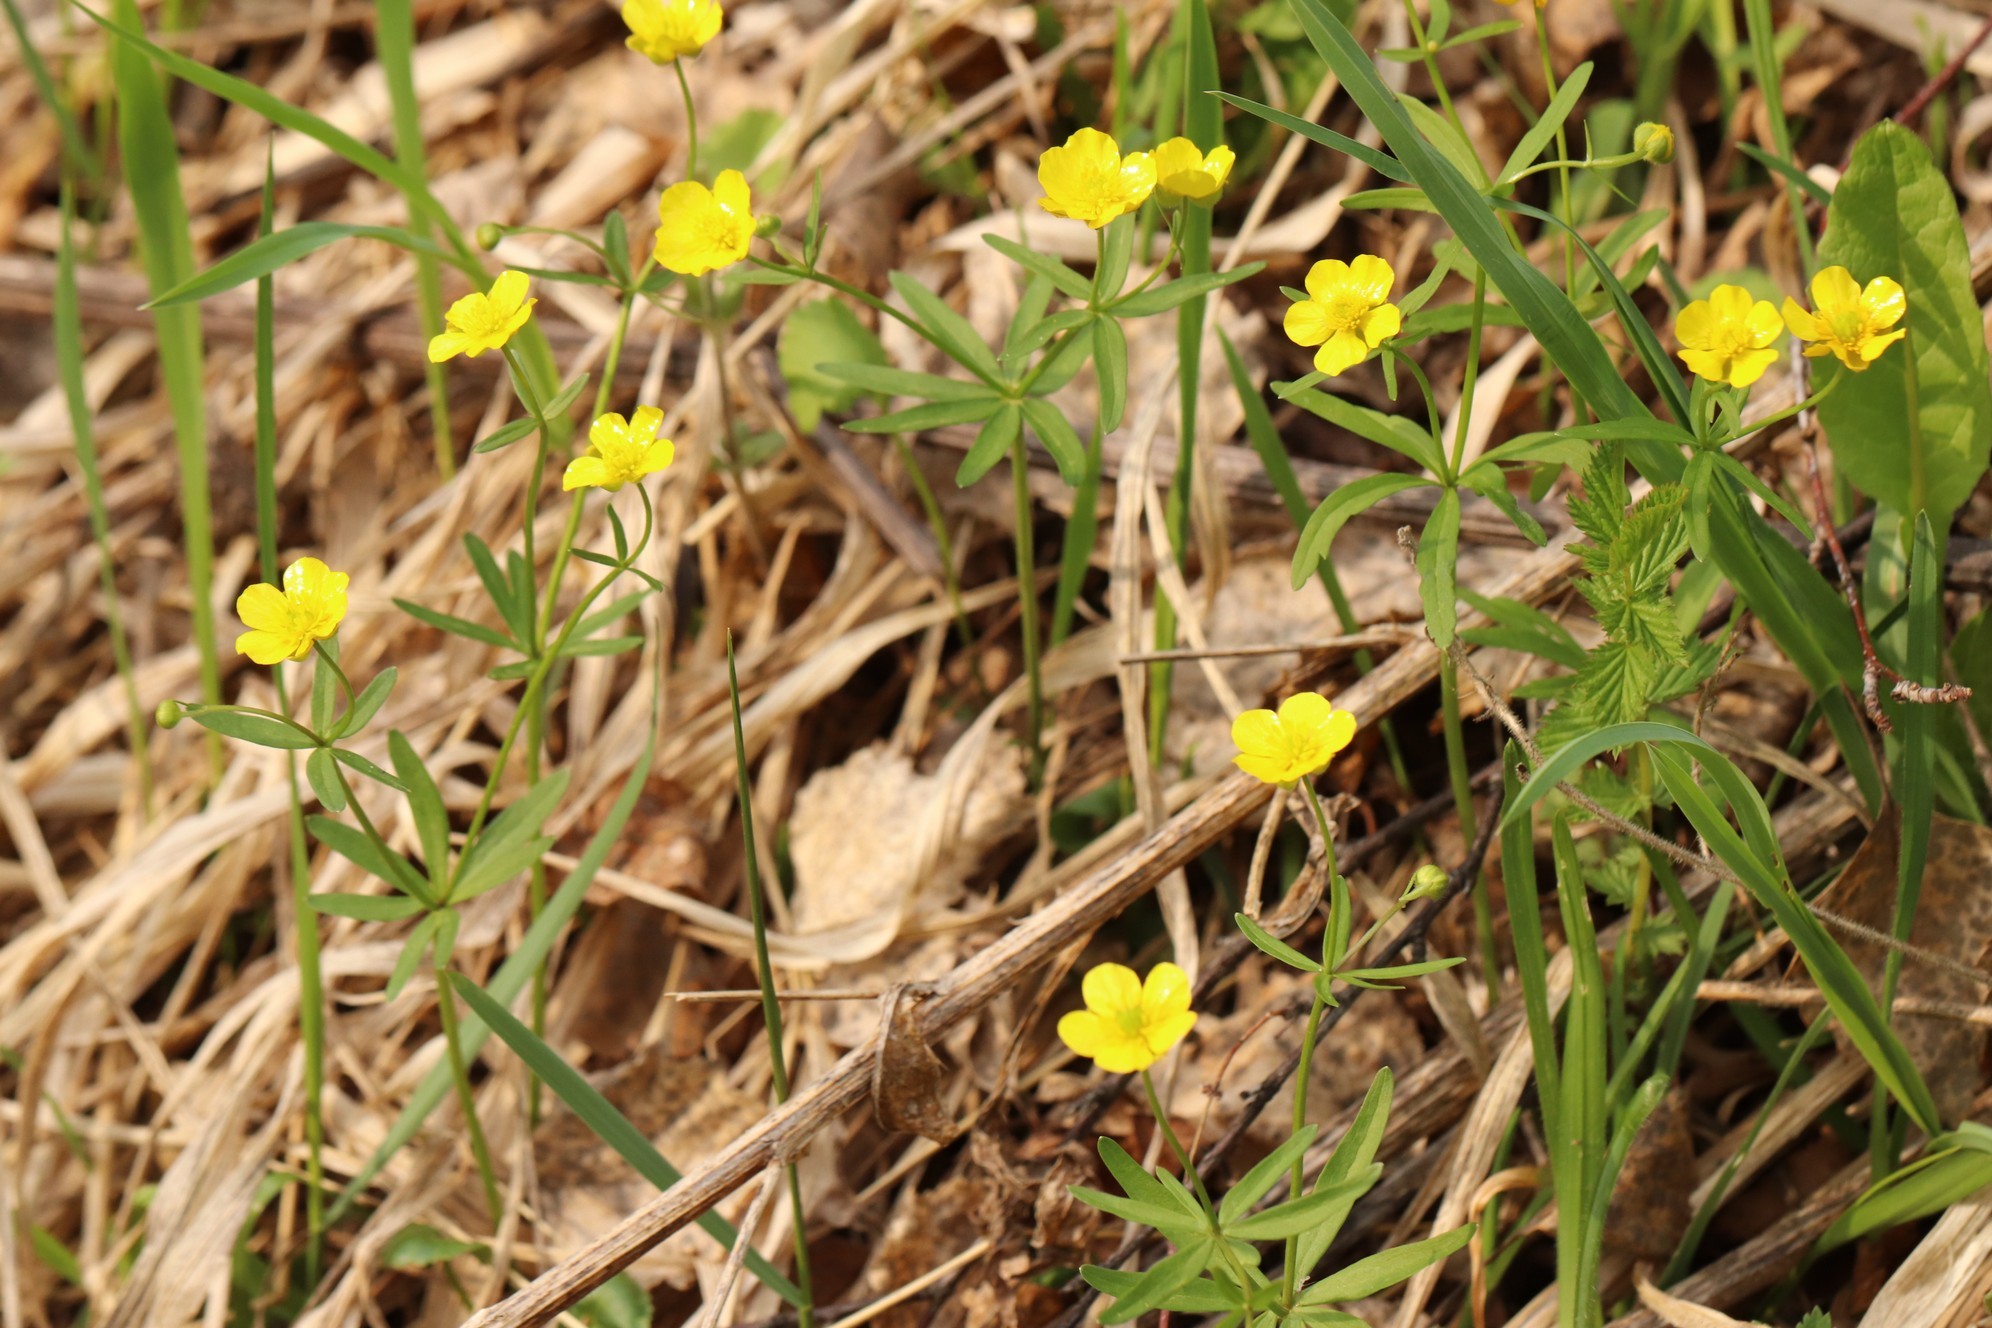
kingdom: Plantae
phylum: Tracheophyta
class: Magnoliopsida
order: Ranunculales
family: Ranunculaceae
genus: Ranunculus
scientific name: Ranunculus monophyllus
